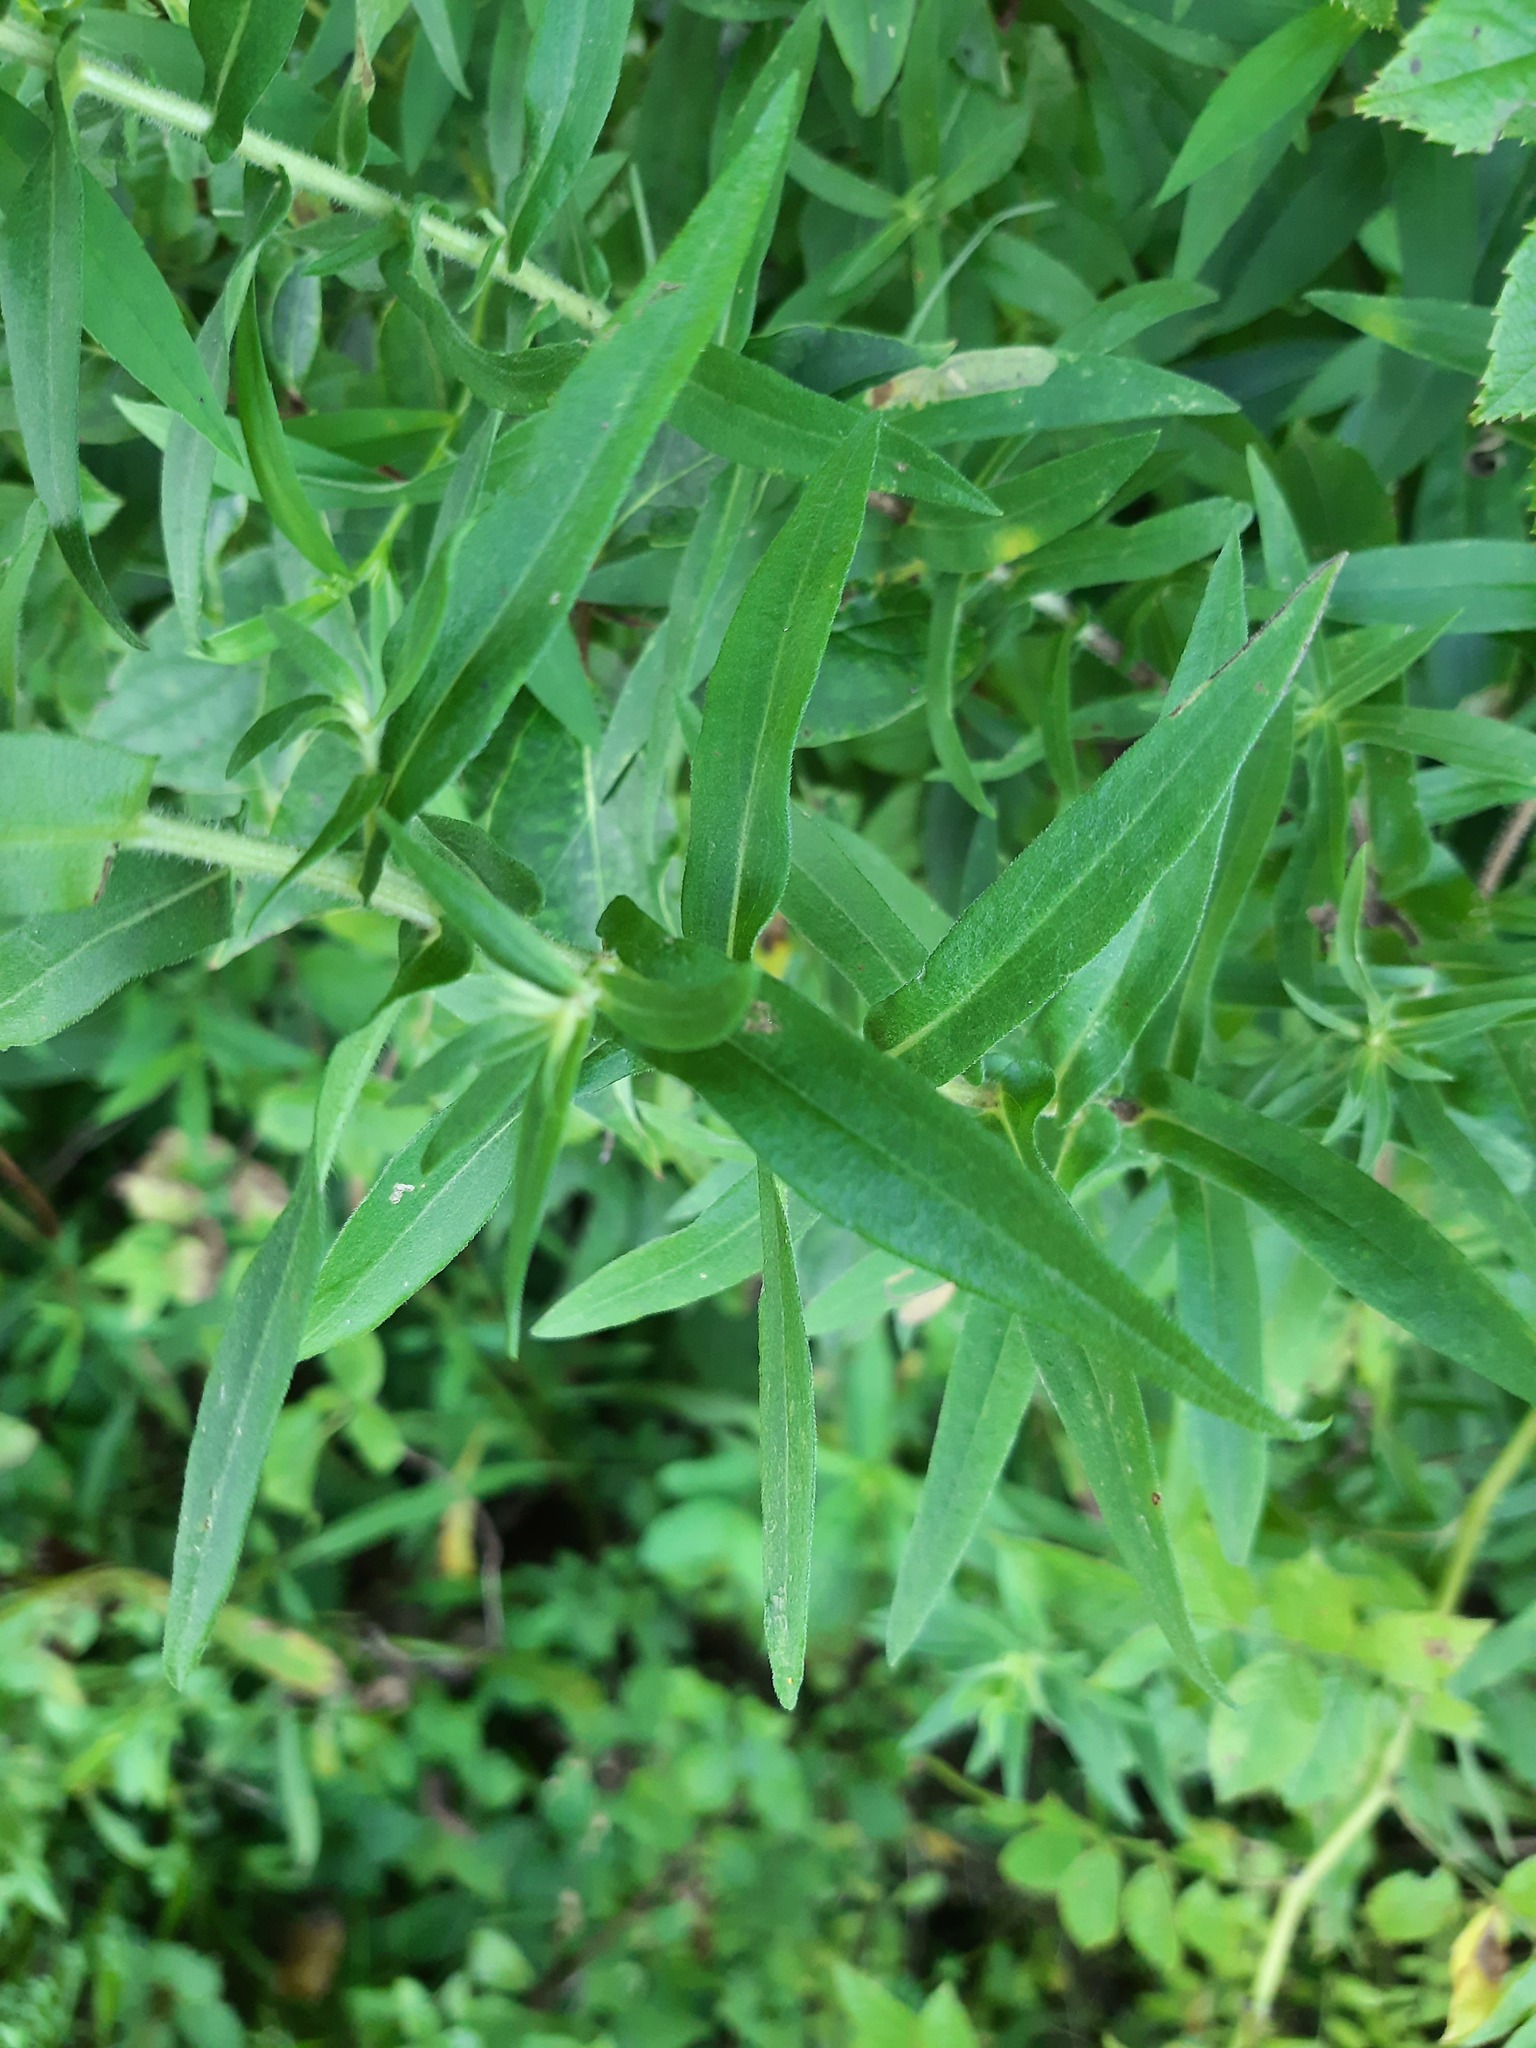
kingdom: Plantae
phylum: Tracheophyta
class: Magnoliopsida
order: Asterales
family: Asteraceae
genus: Symphyotrichum
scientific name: Symphyotrichum novae-angliae
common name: Michaelmas daisy
